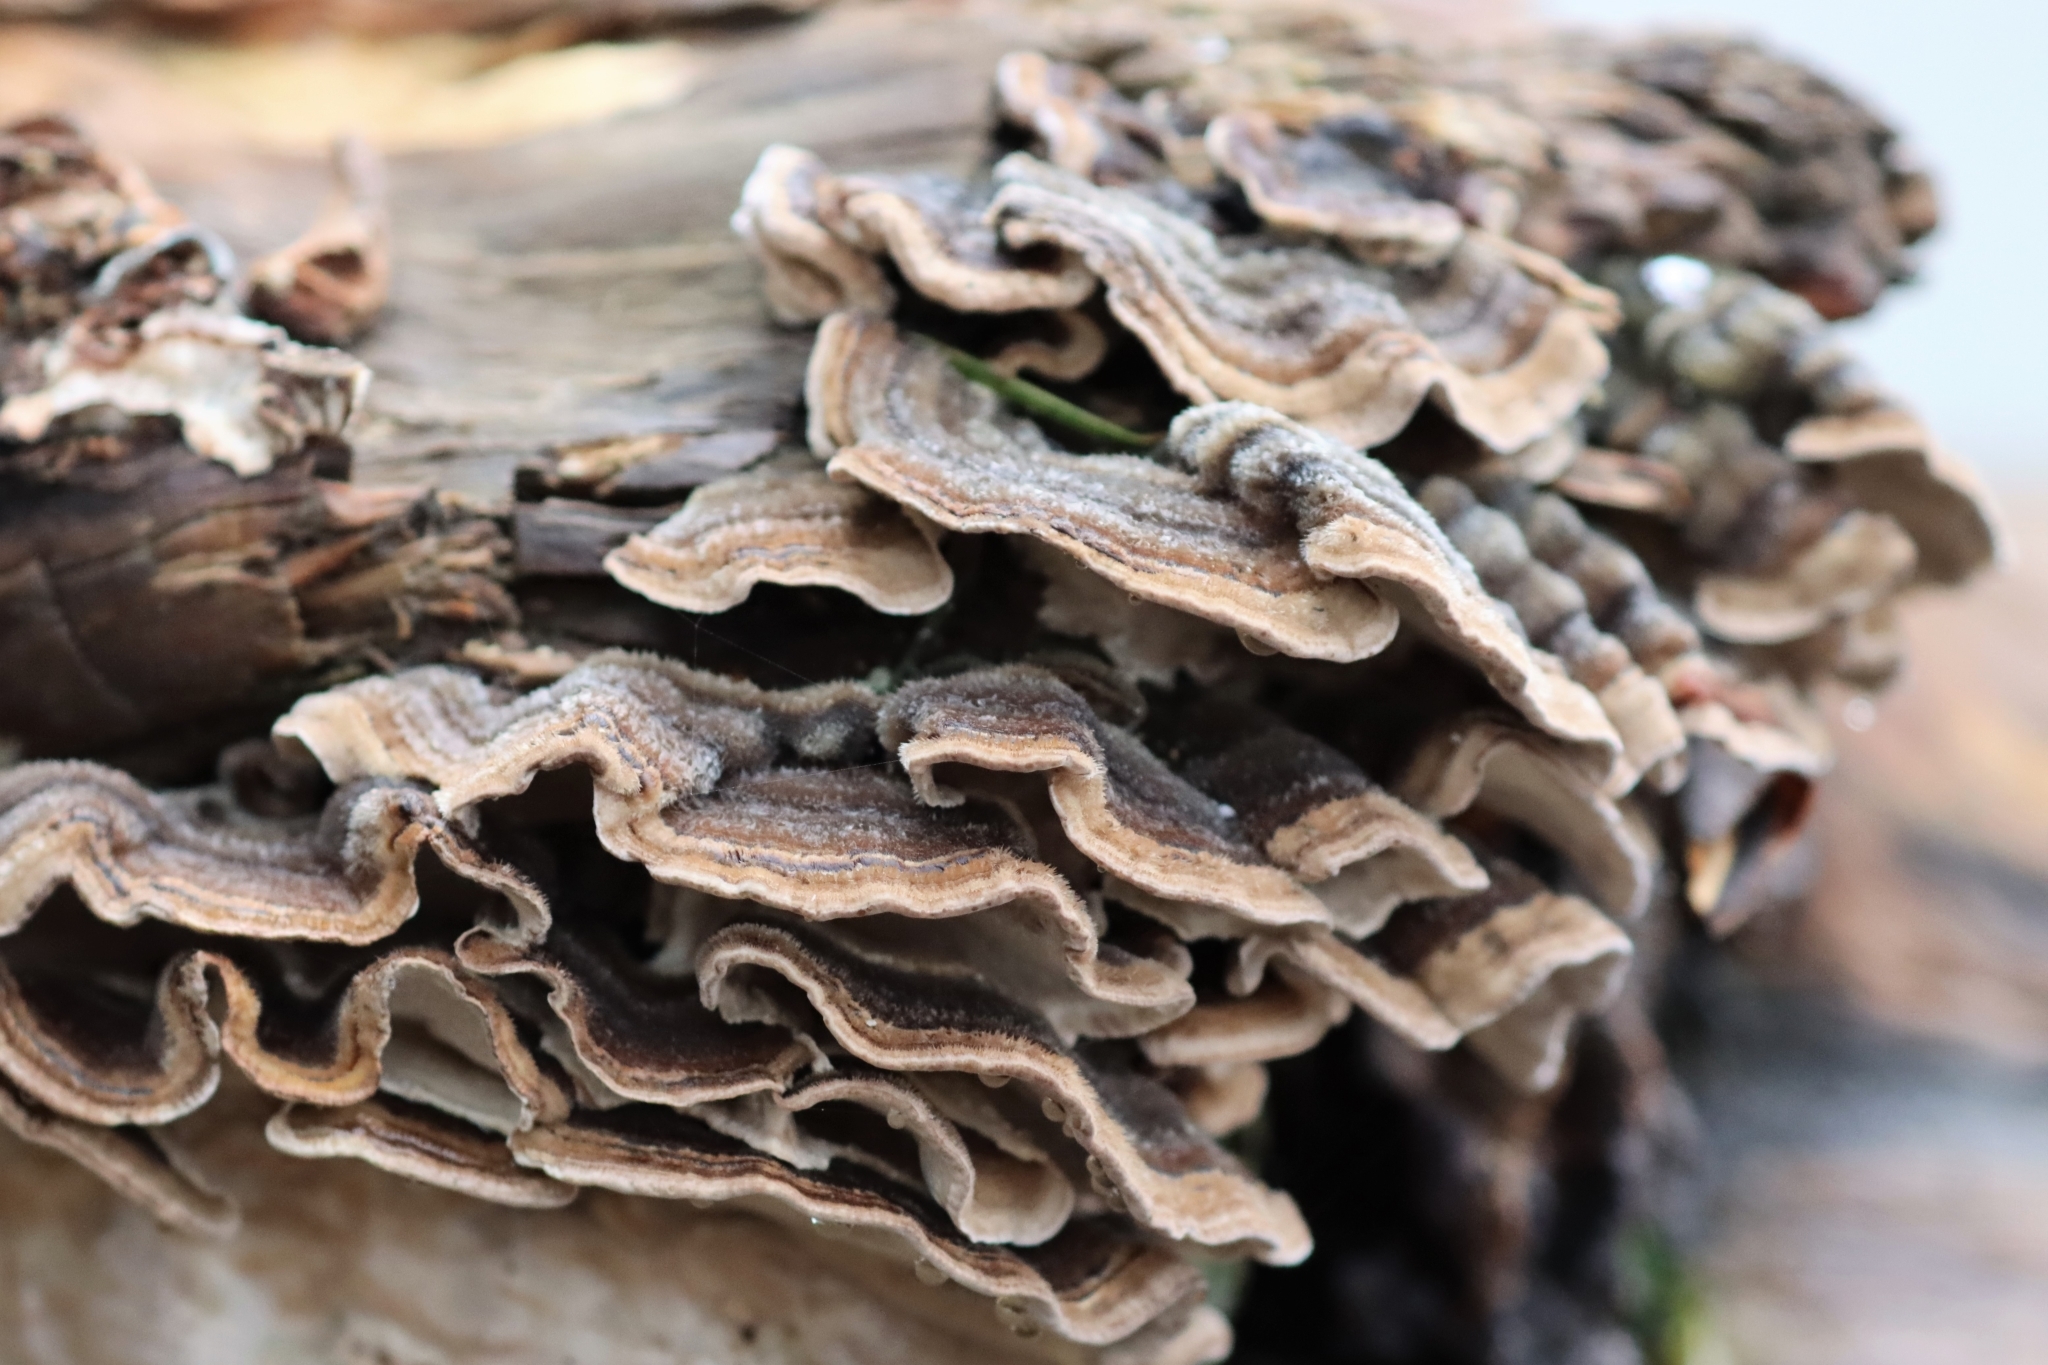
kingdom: Fungi
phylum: Basidiomycota
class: Agaricomycetes
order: Russulales
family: Stereaceae
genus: Stereum
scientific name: Stereum hirsutum
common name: Hairy curtain crust
